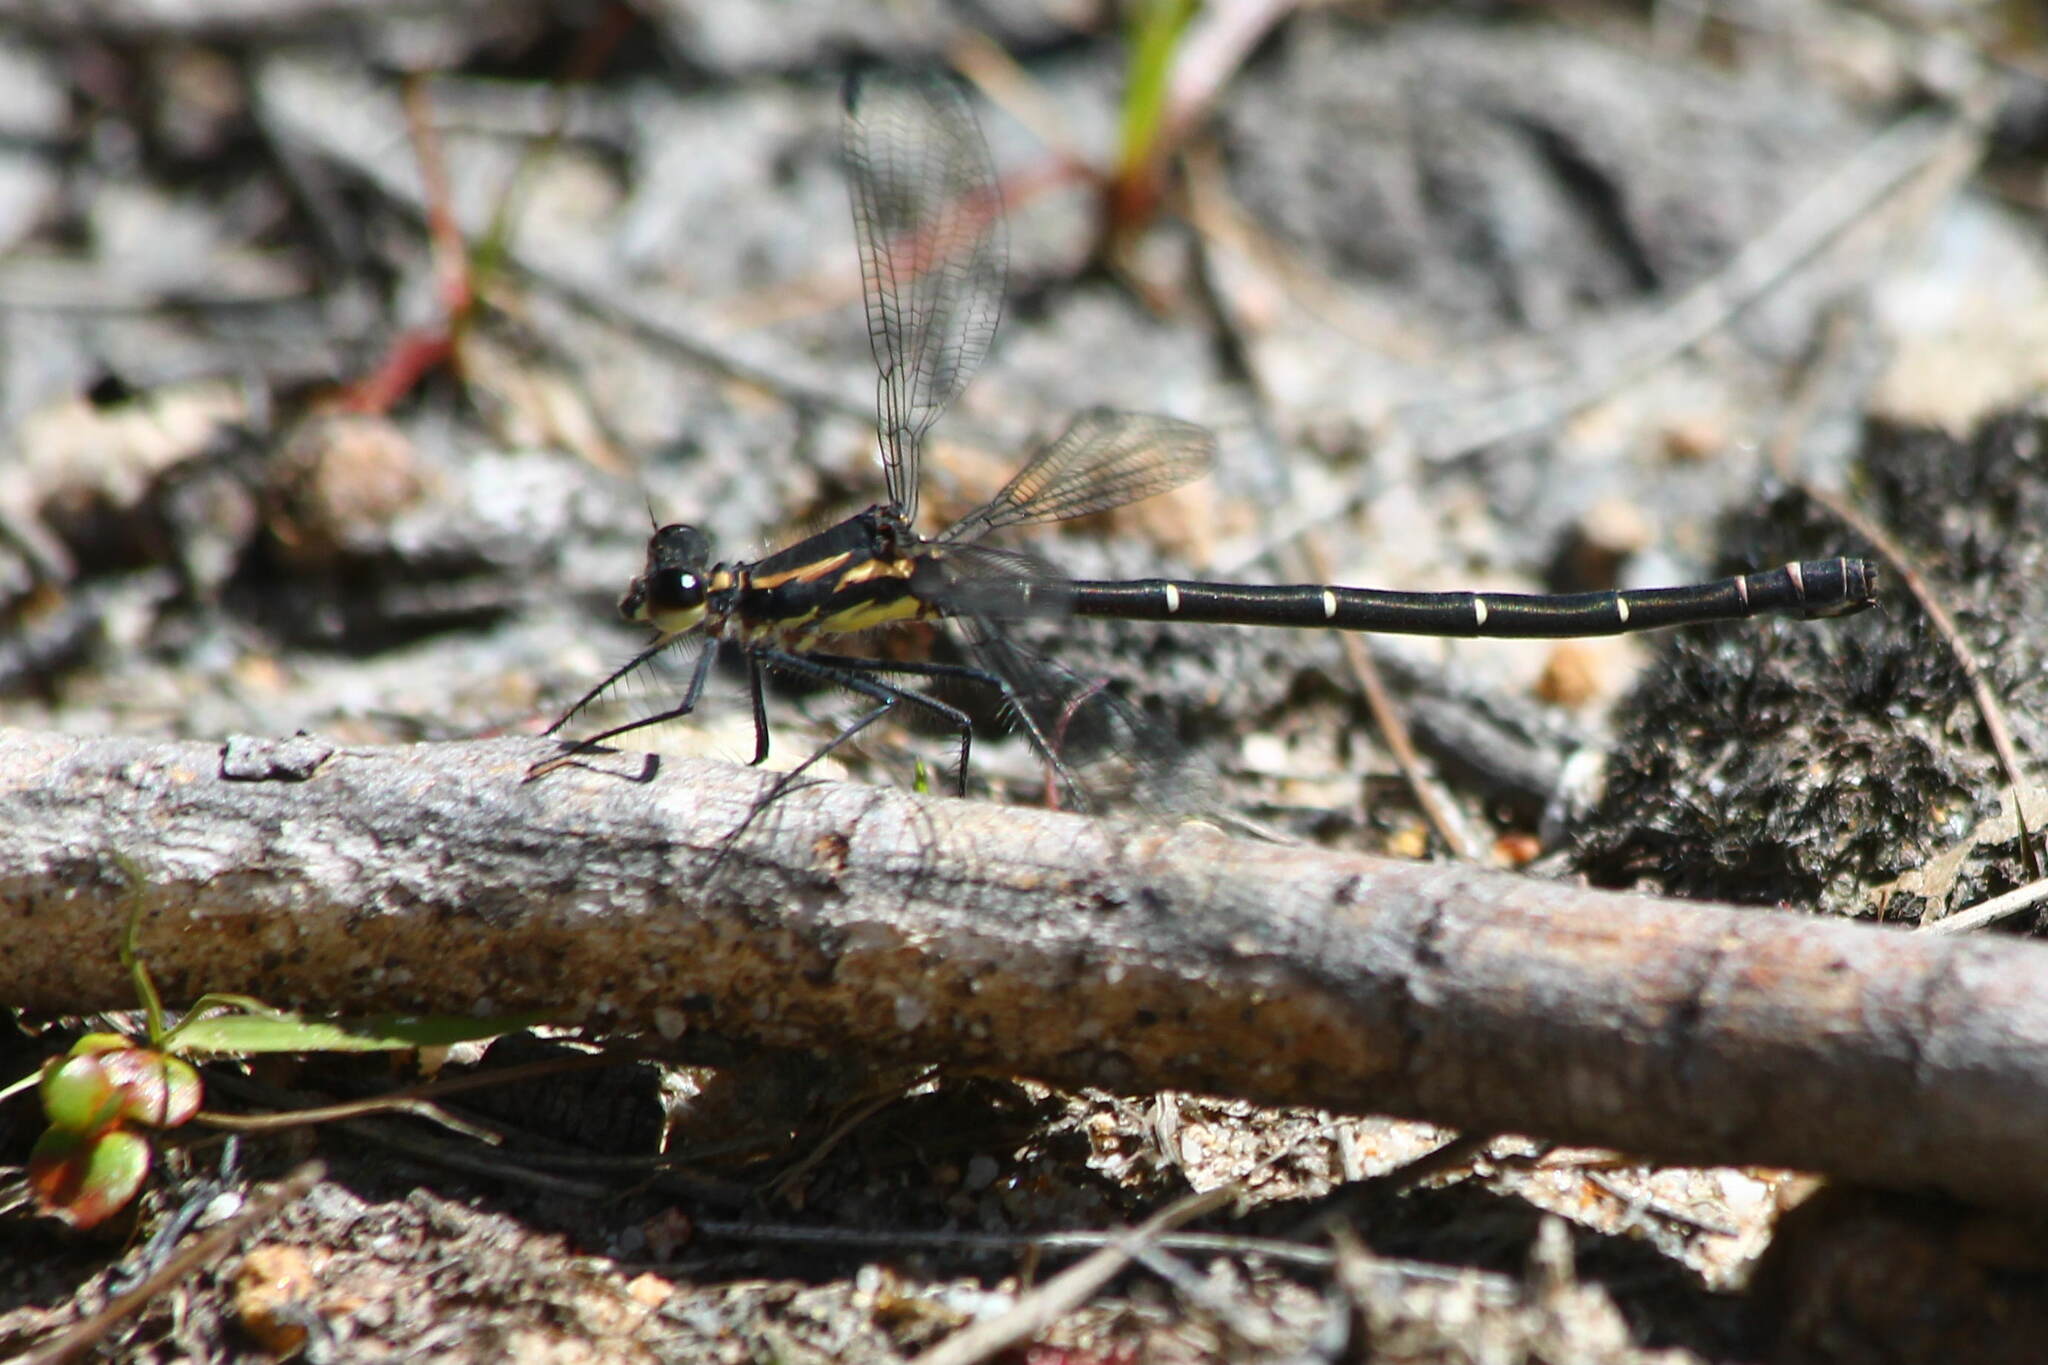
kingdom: Animalia
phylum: Arthropoda
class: Insecta
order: Odonata
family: Argiolestidae
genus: Austroargiolestes
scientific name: Austroargiolestes icteromelas
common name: Common flatwing
